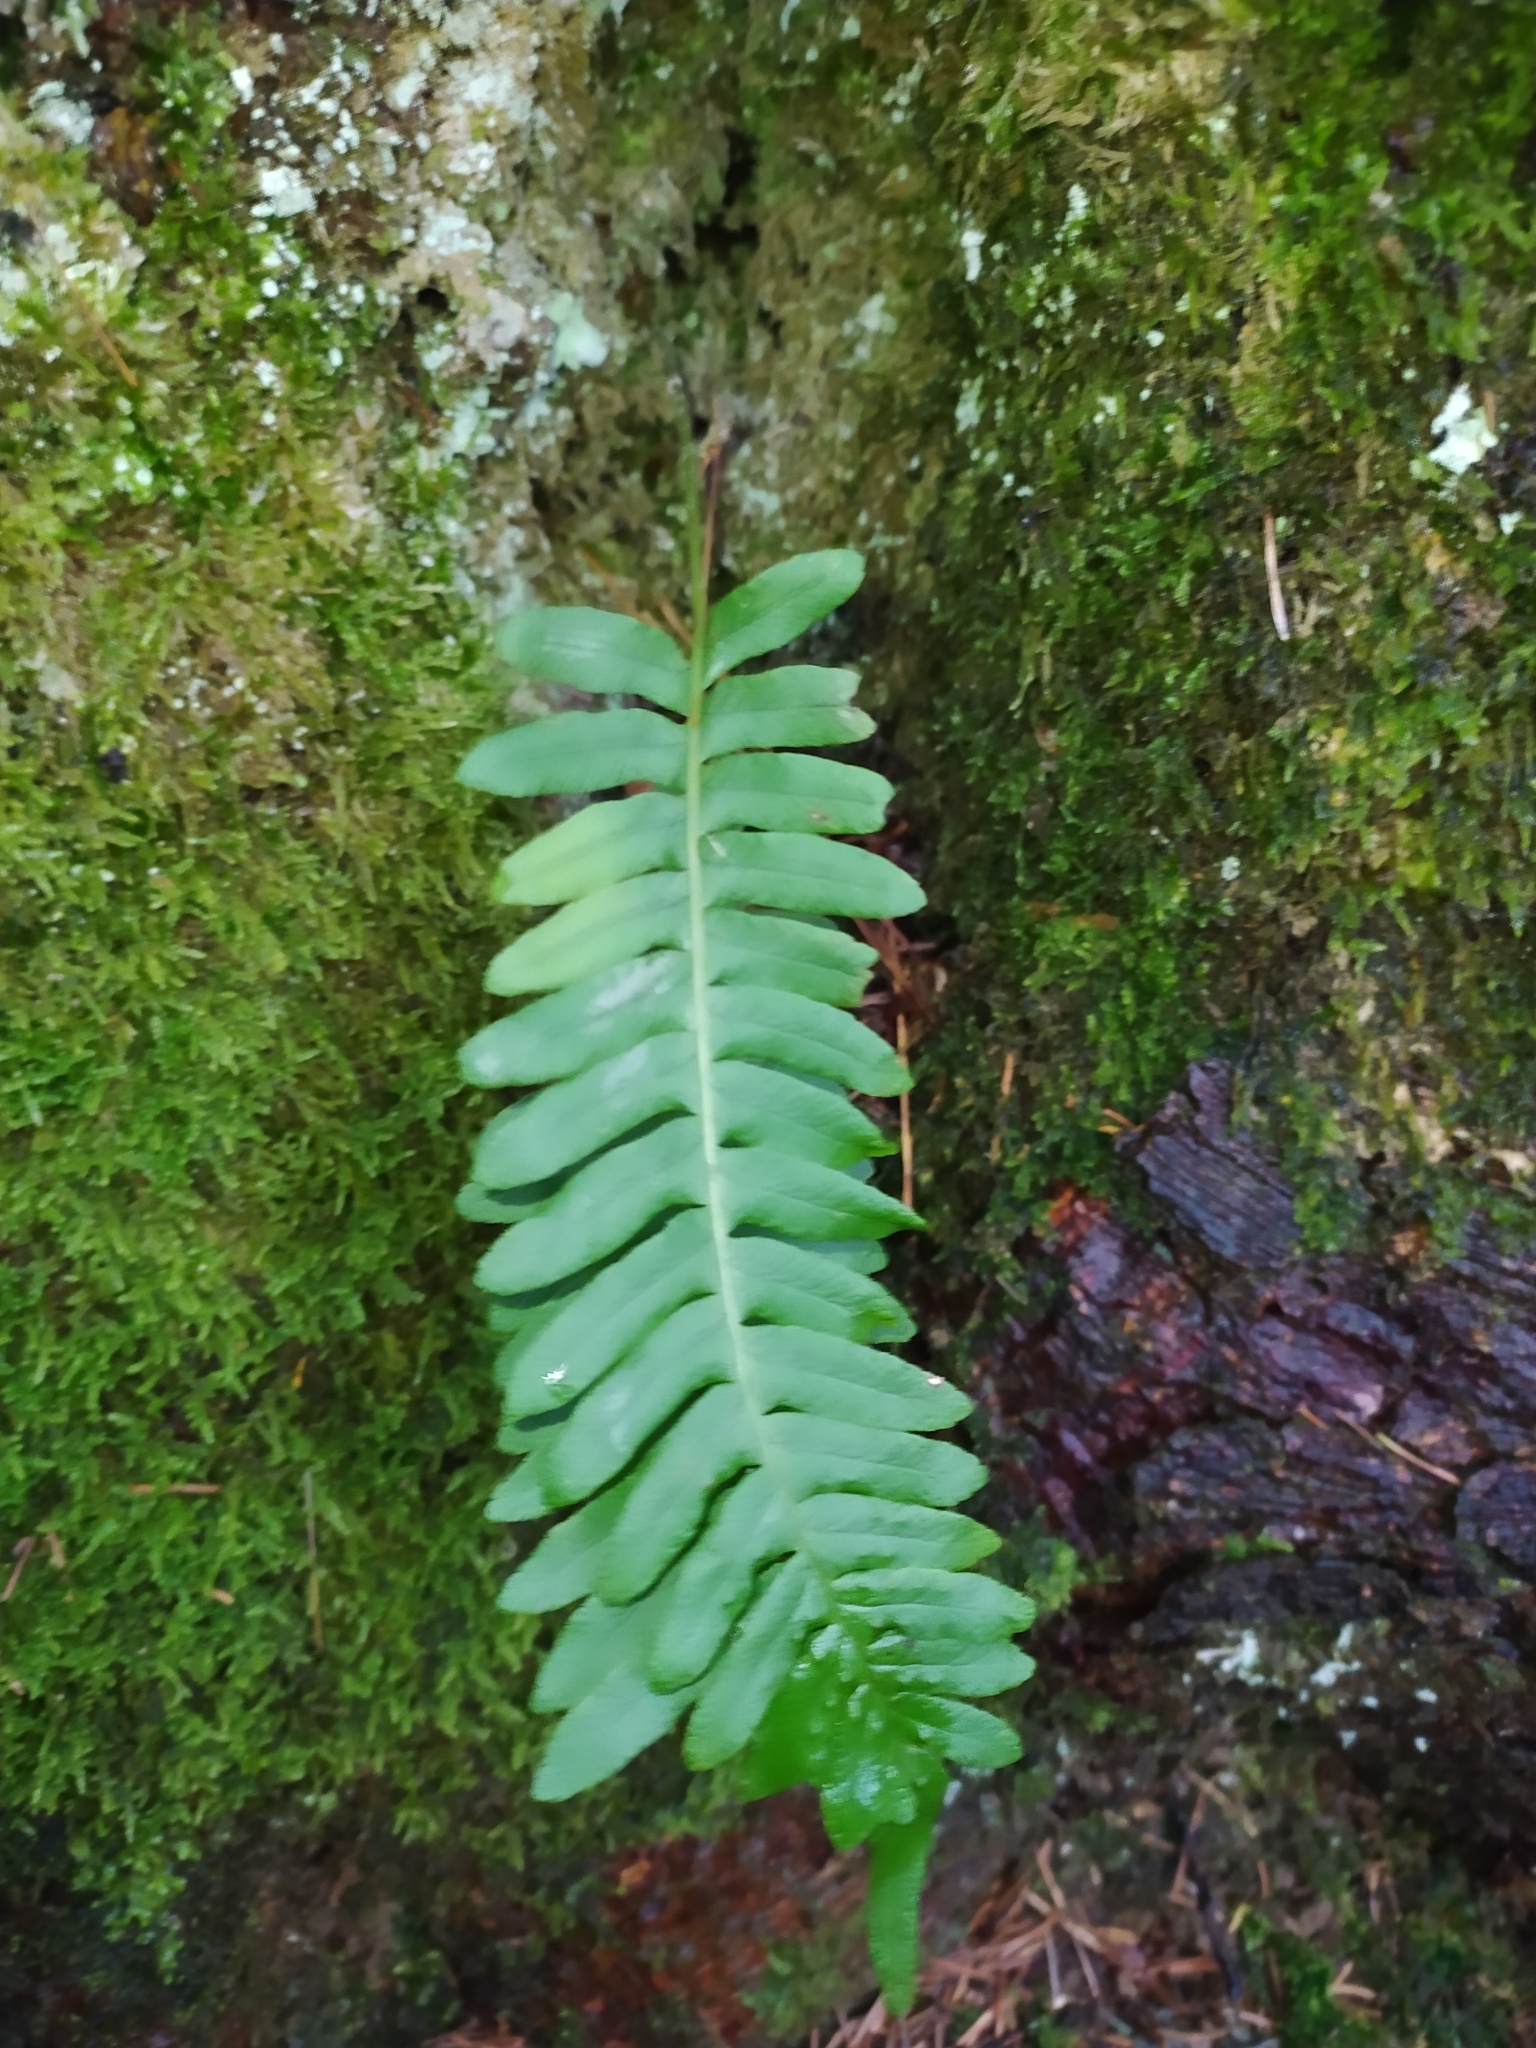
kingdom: Plantae
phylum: Tracheophyta
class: Polypodiopsida
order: Polypodiales
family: Polypodiaceae
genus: Polypodium
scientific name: Polypodium vulgare
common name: Common polypody
